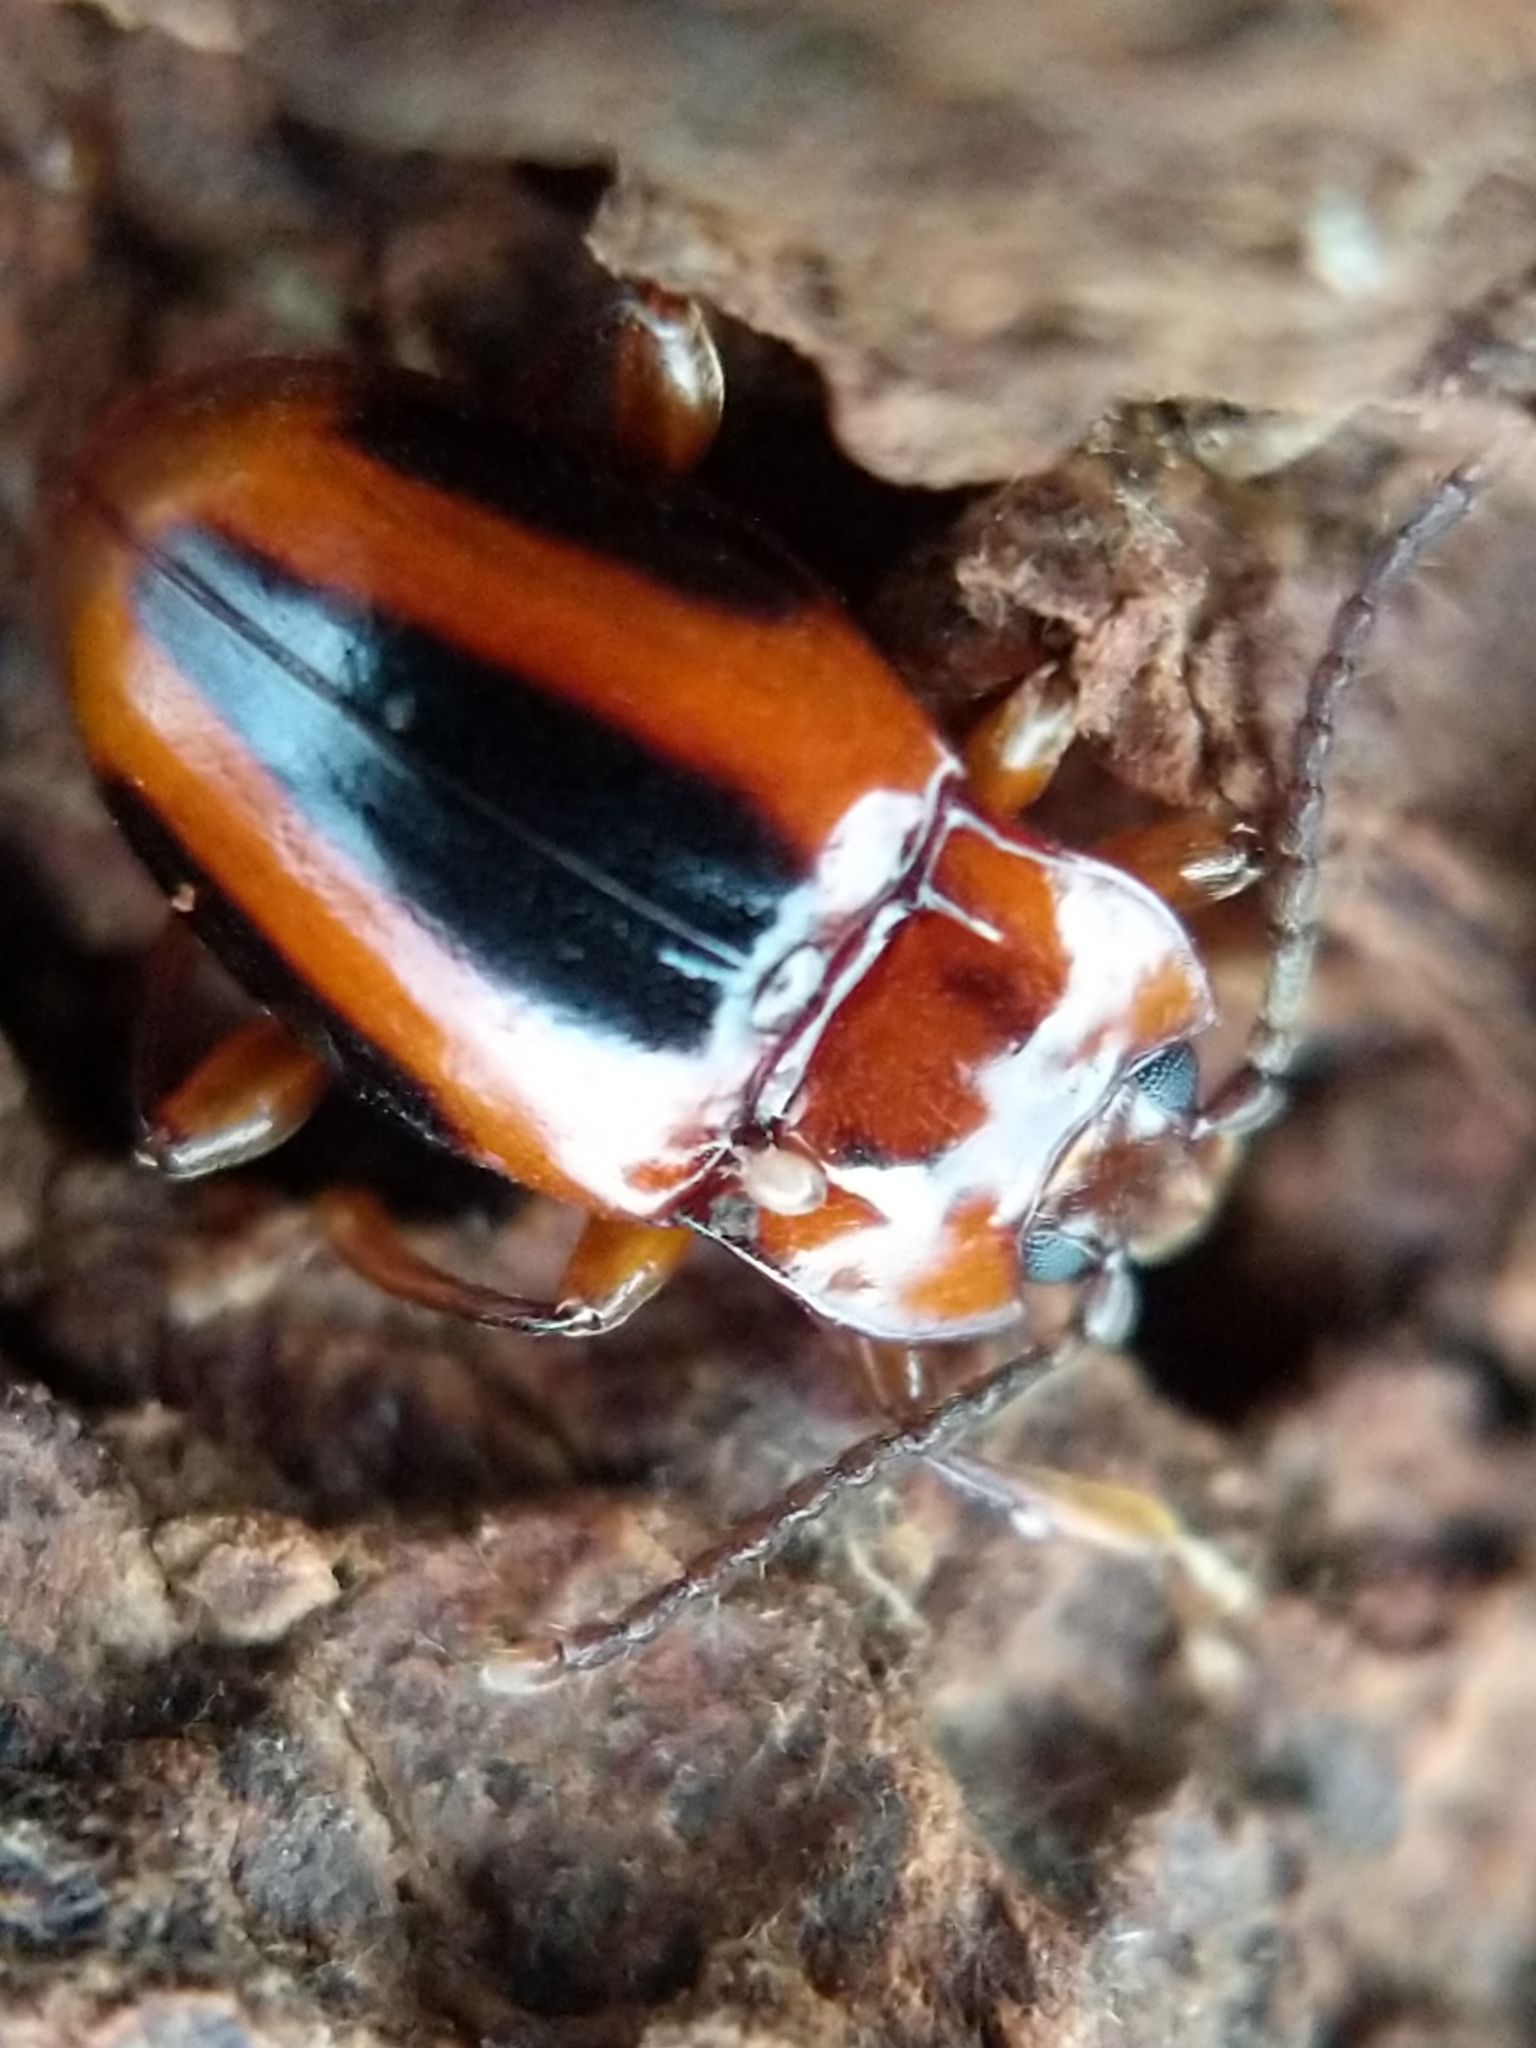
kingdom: Animalia
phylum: Arthropoda
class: Insecta
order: Coleoptera
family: Endomychidae
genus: Aphorista
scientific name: Aphorista vittata
